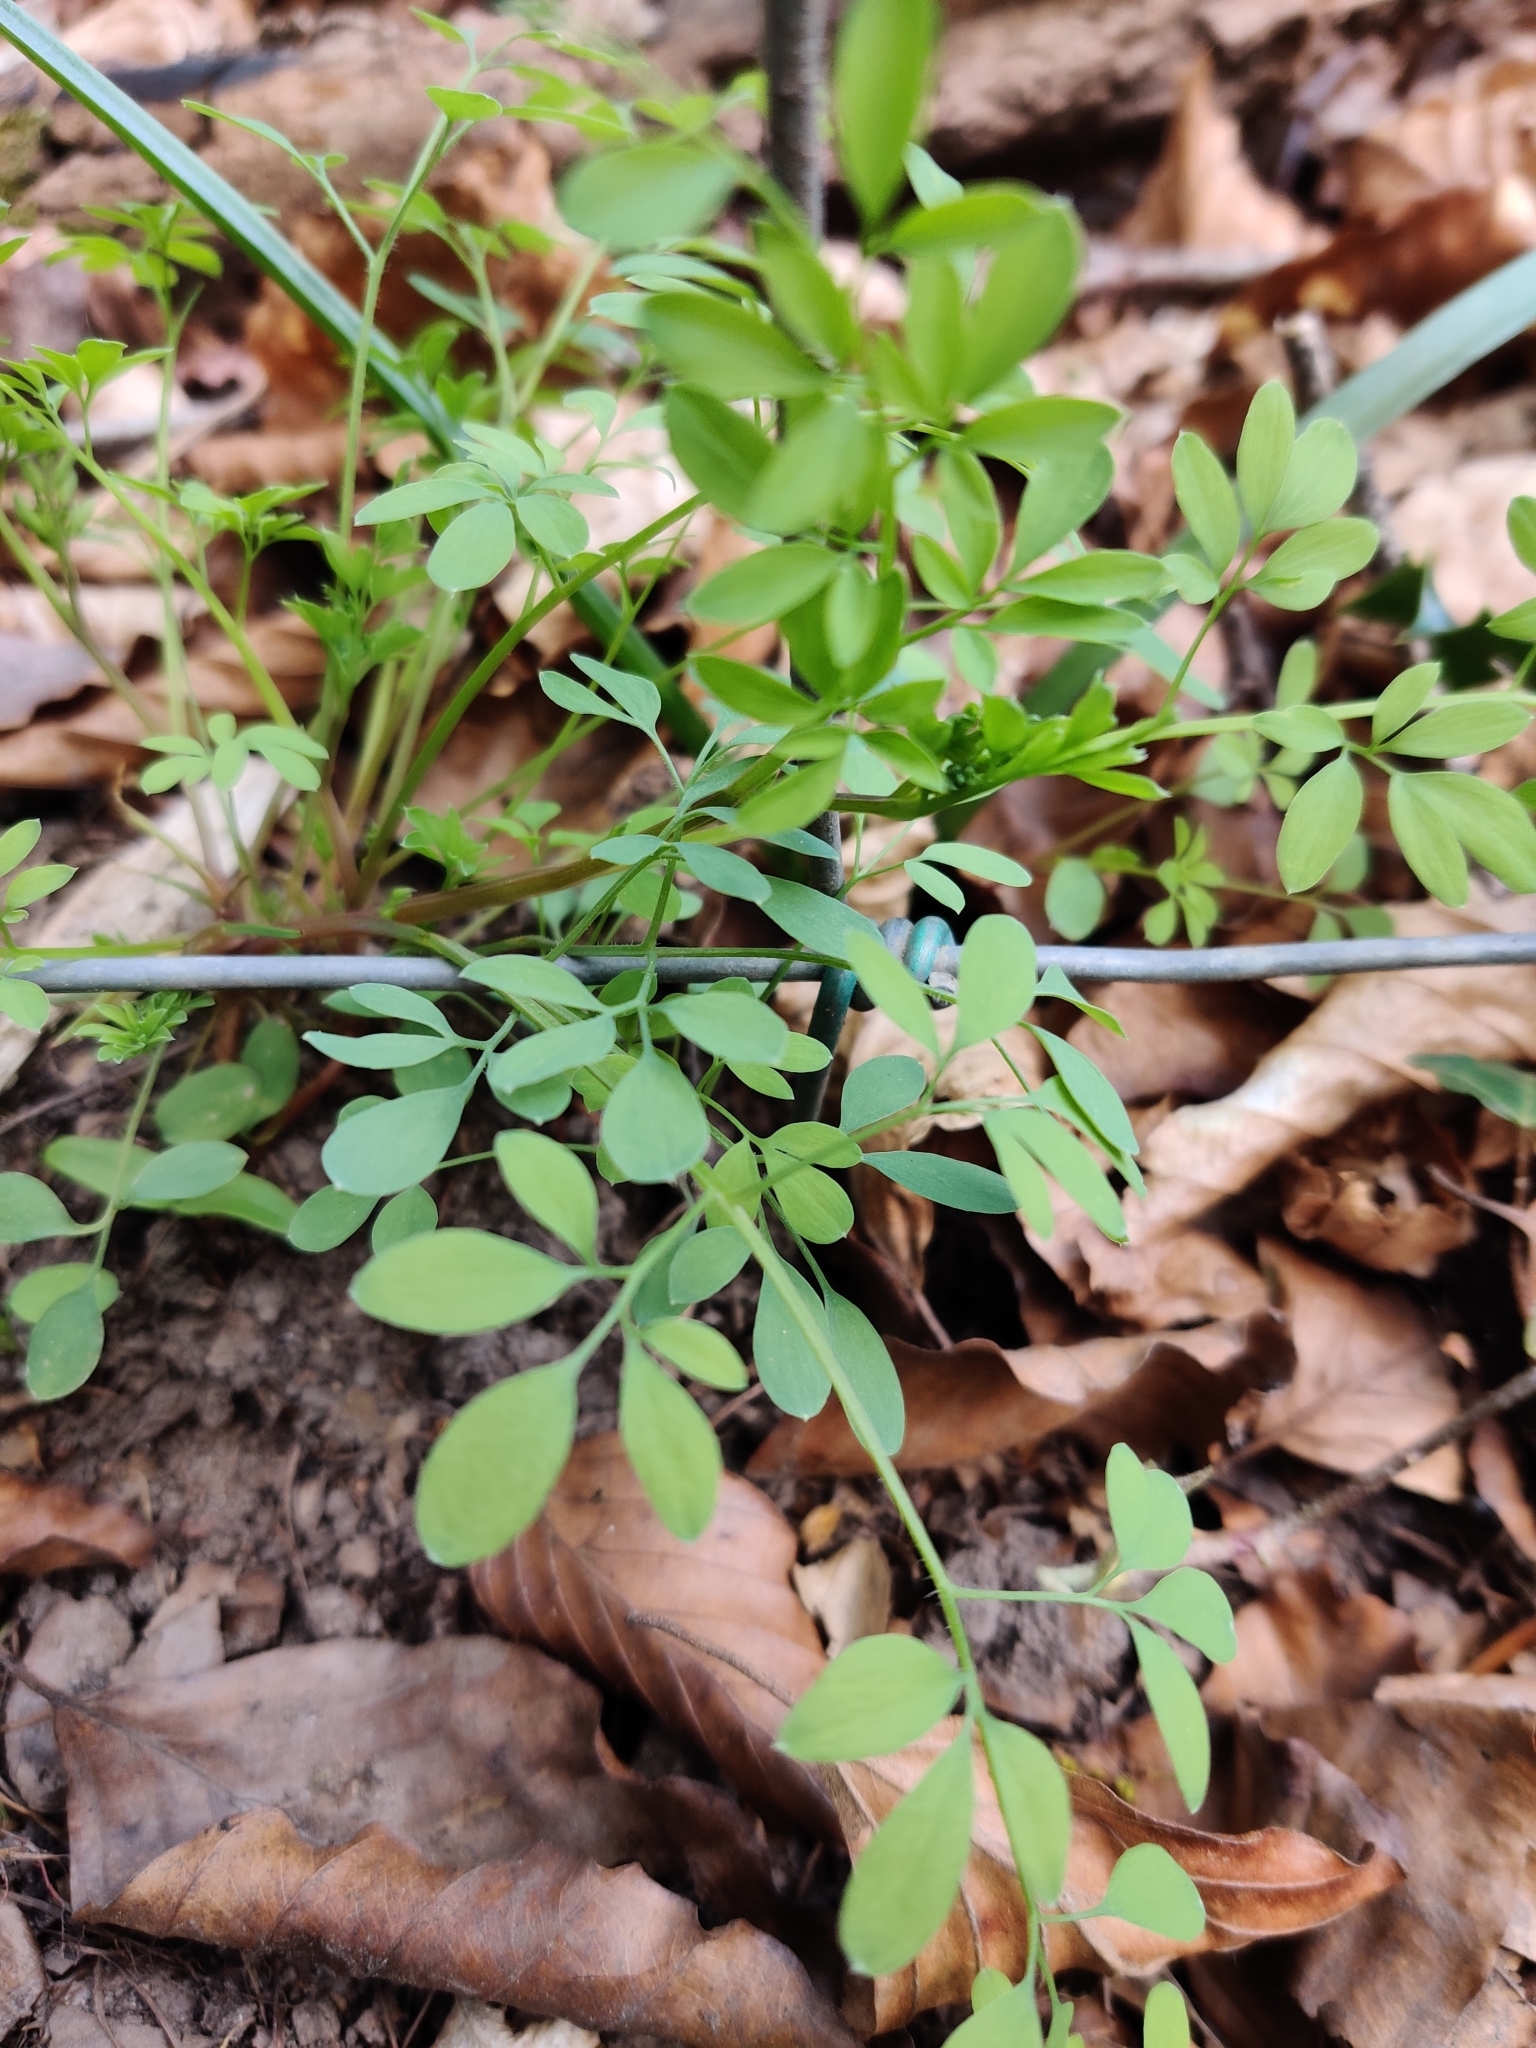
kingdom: Plantae
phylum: Tracheophyta
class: Magnoliopsida
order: Ranunculales
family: Papaveraceae
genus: Ceratocapnos
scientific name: Ceratocapnos claviculata
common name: Climbing corydalis
